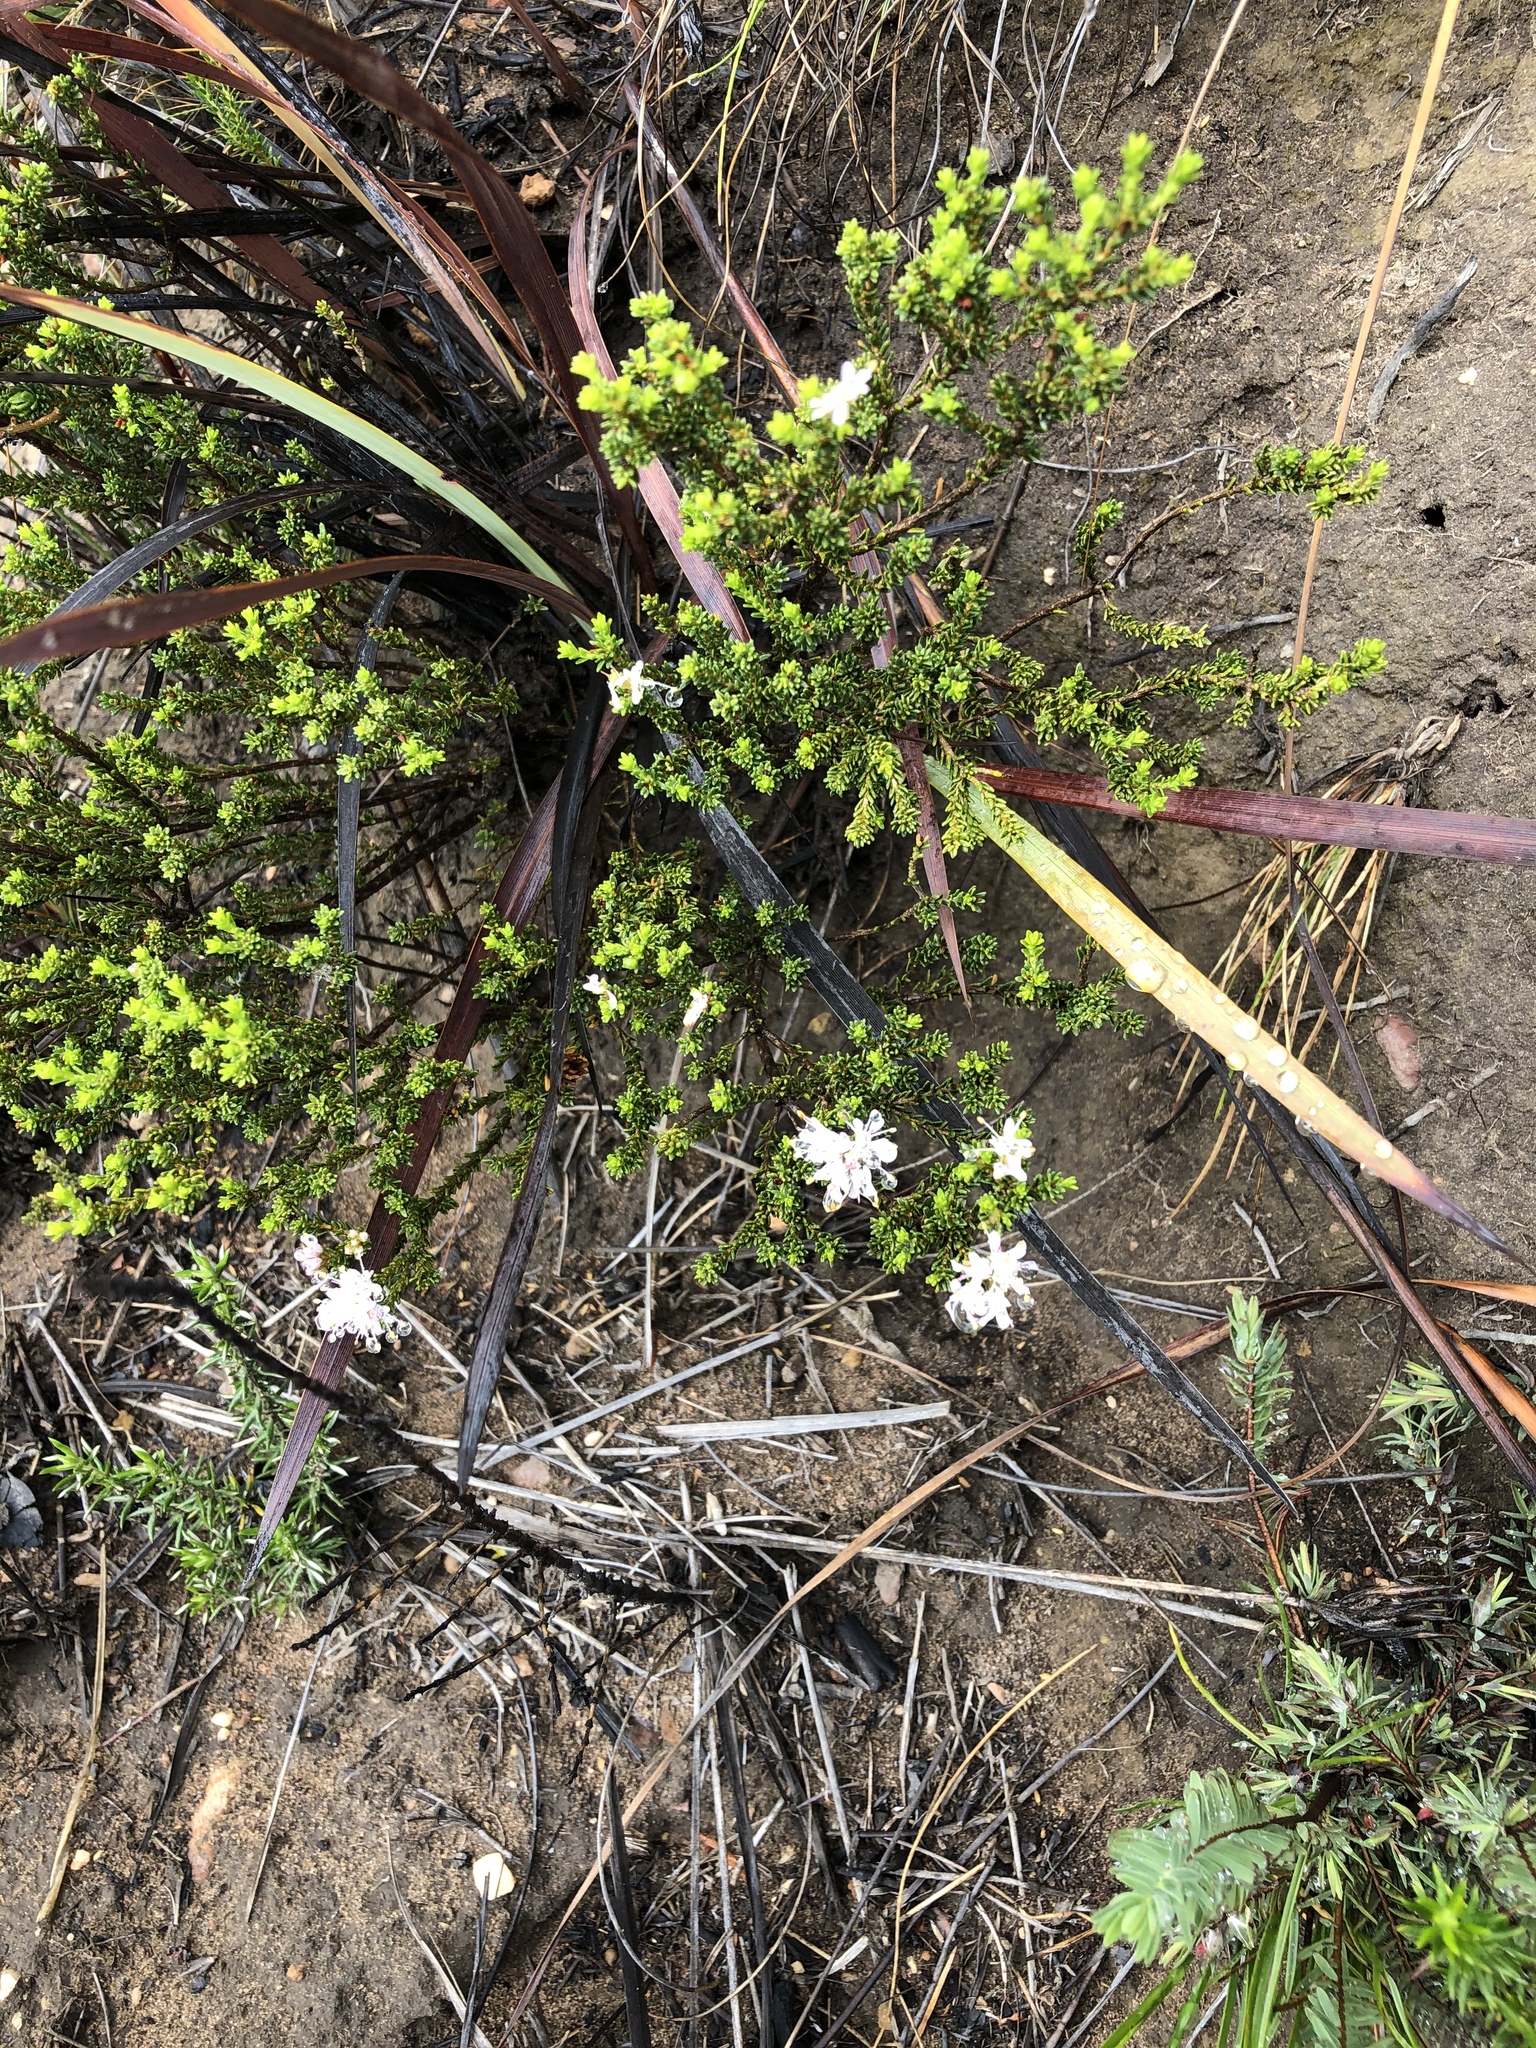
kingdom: Plantae
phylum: Tracheophyta
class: Magnoliopsida
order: Sapindales
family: Rutaceae
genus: Agathosma
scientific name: Agathosma capensis
